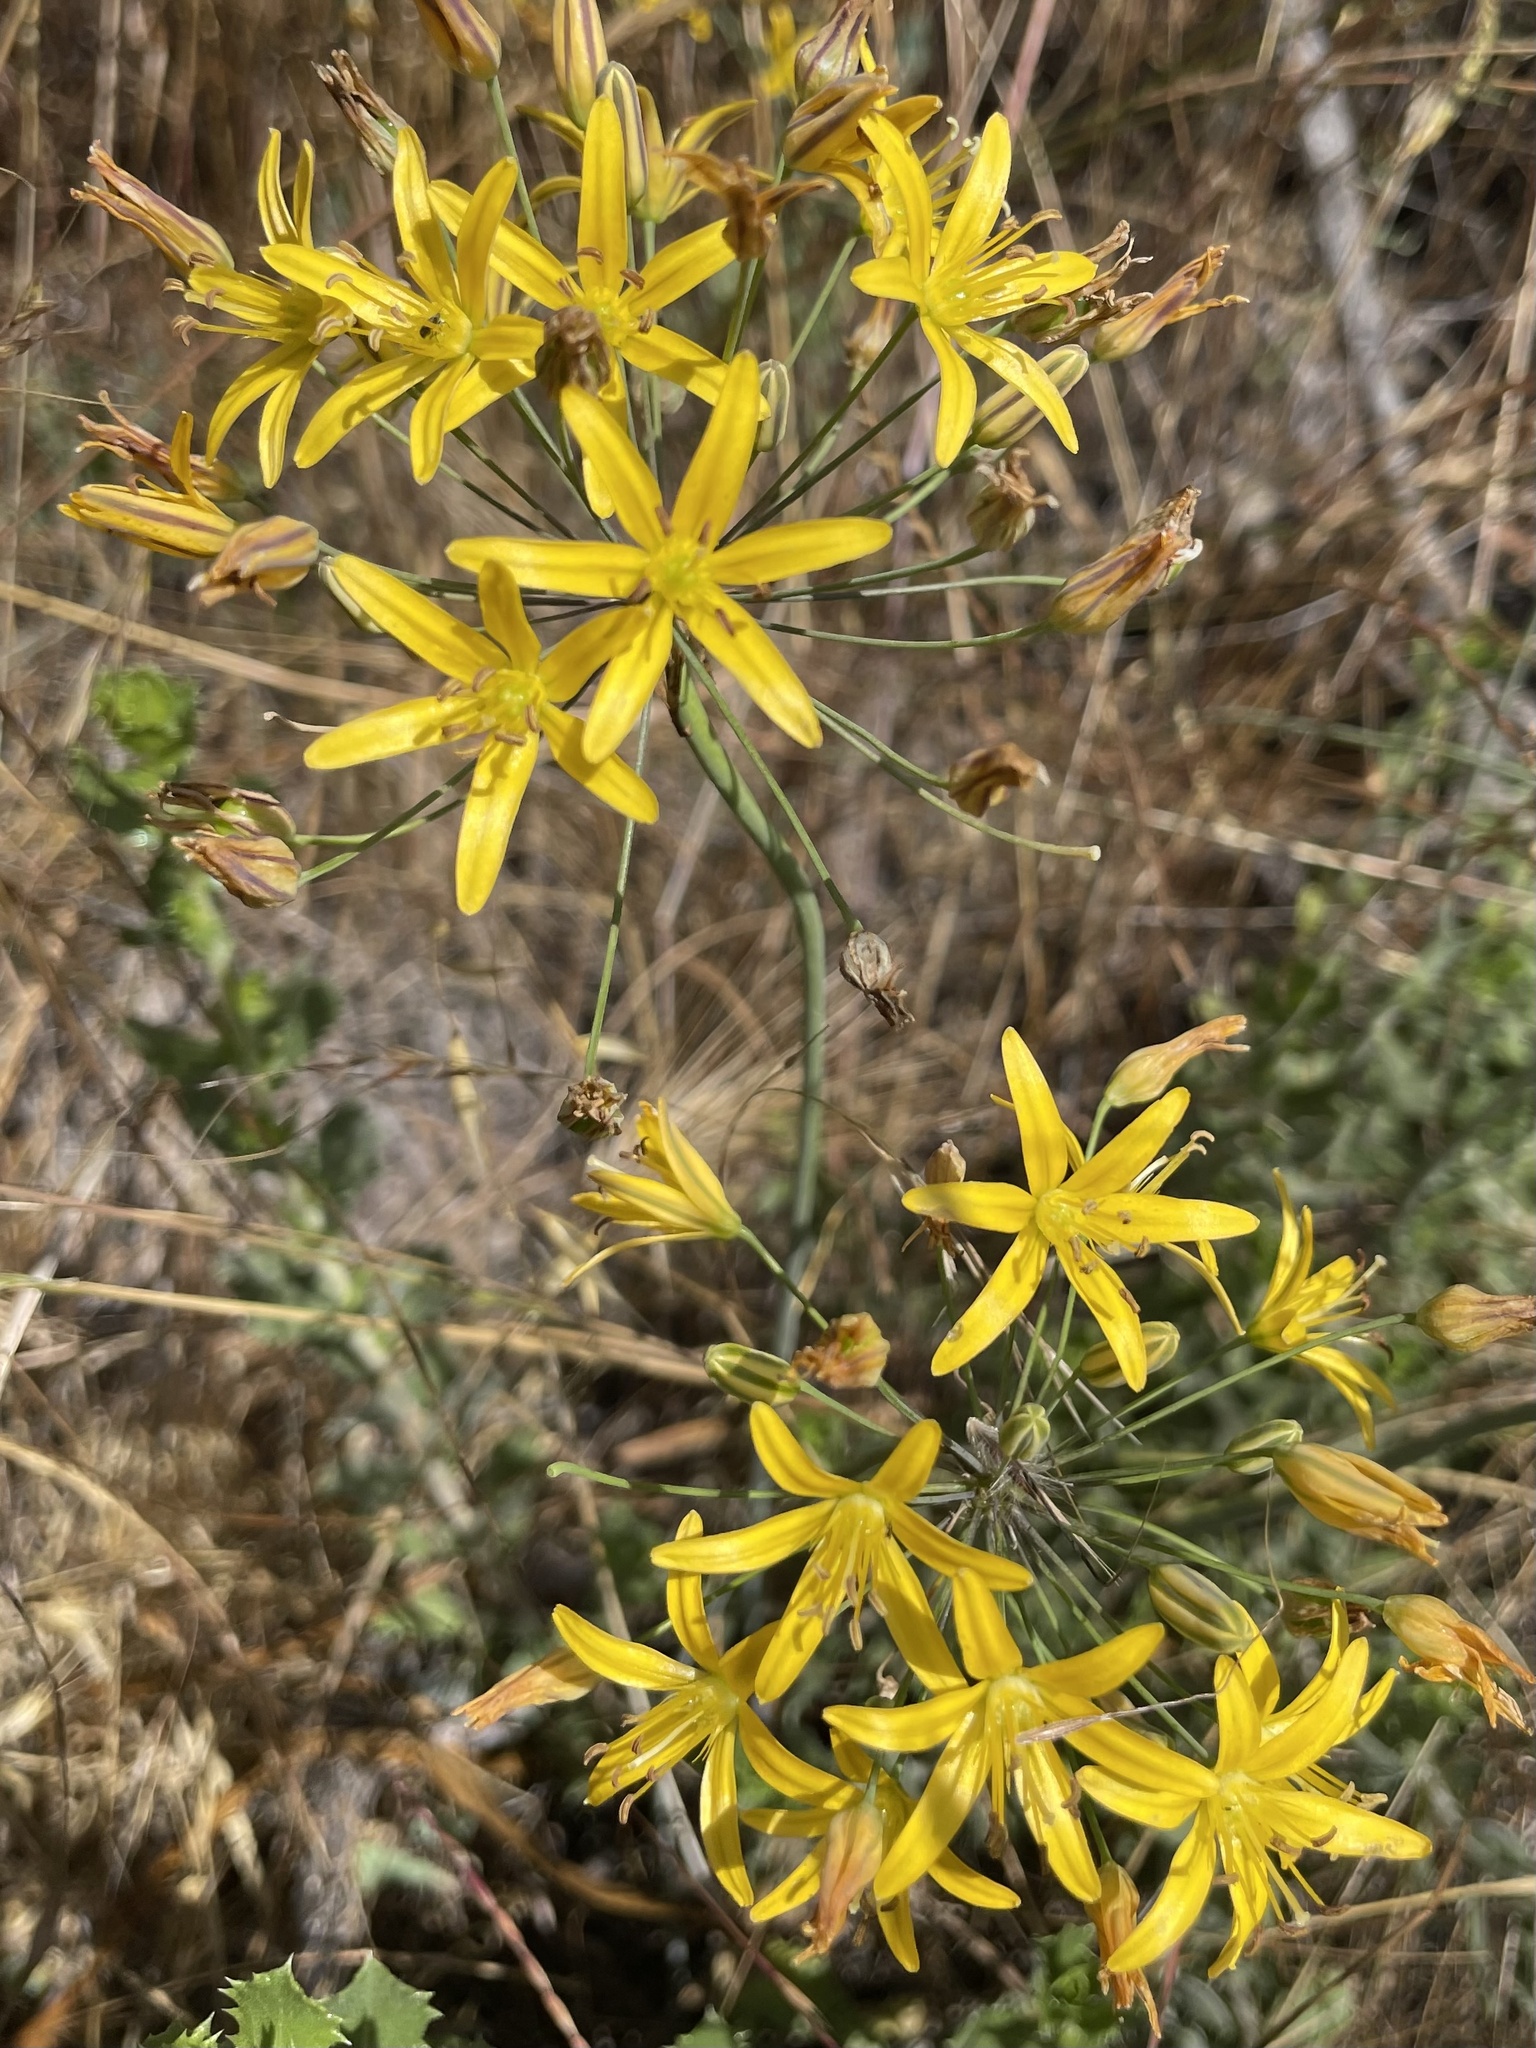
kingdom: Plantae
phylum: Tracheophyta
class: Liliopsida
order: Asparagales
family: Asparagaceae
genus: Bloomeria
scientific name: Bloomeria crocea
